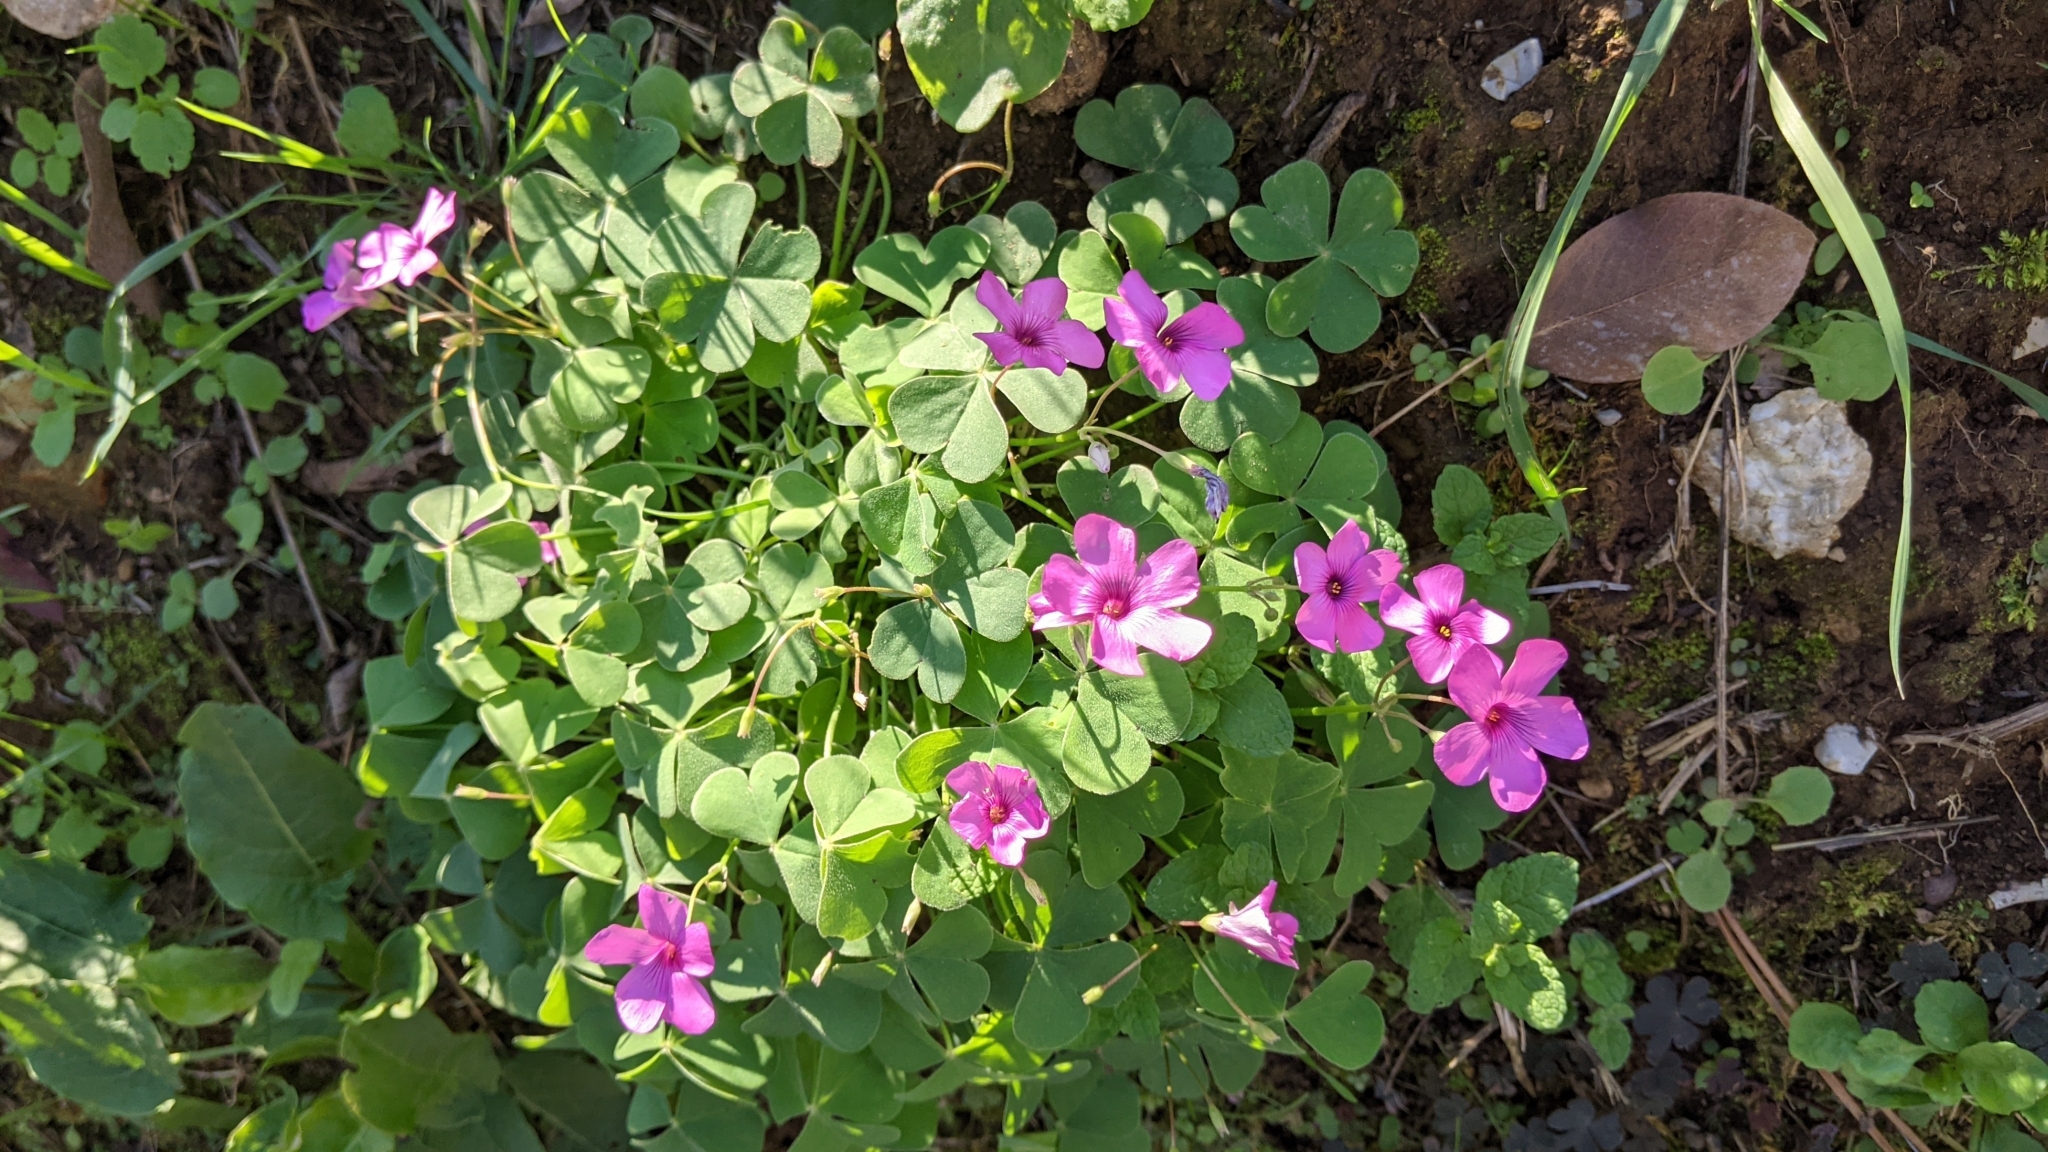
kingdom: Plantae
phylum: Tracheophyta
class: Magnoliopsida
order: Oxalidales
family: Oxalidaceae
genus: Oxalis
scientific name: Oxalis articulata
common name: Pink-sorrel
